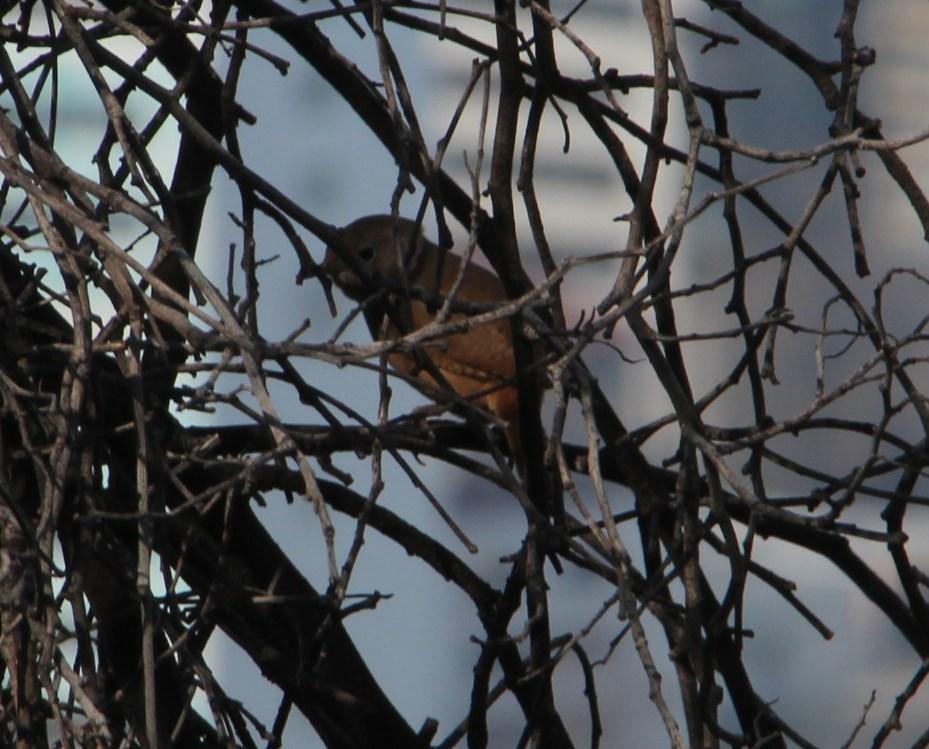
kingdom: Animalia
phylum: Chordata
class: Aves
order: Passeriformes
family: Troglodytidae
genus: Troglodytes
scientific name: Troglodytes aedon
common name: House wren
